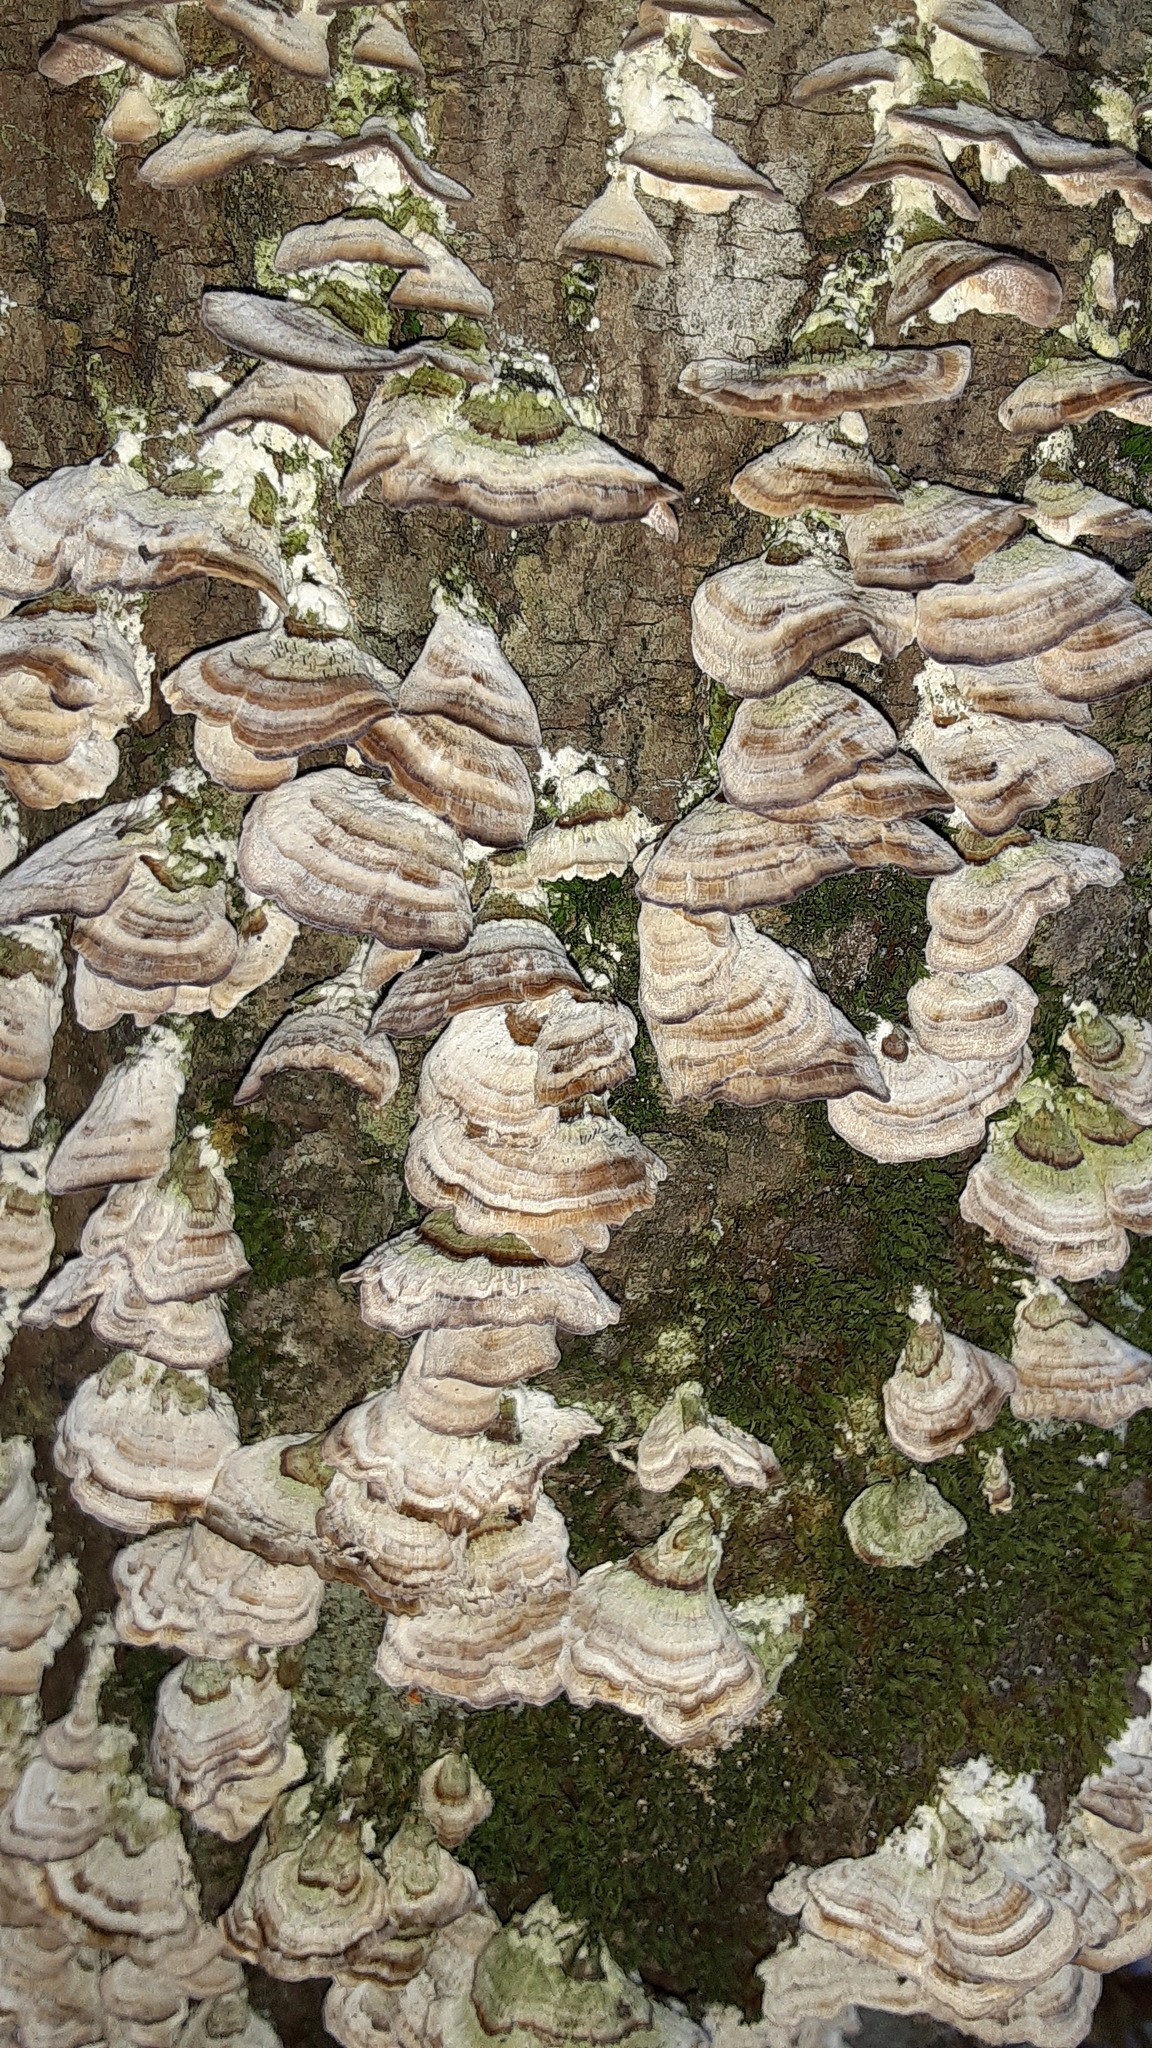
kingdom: Fungi
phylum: Basidiomycota
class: Agaricomycetes
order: Hymenochaetales
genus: Trichaptum
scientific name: Trichaptum biforme
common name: Violet-toothed polypore
